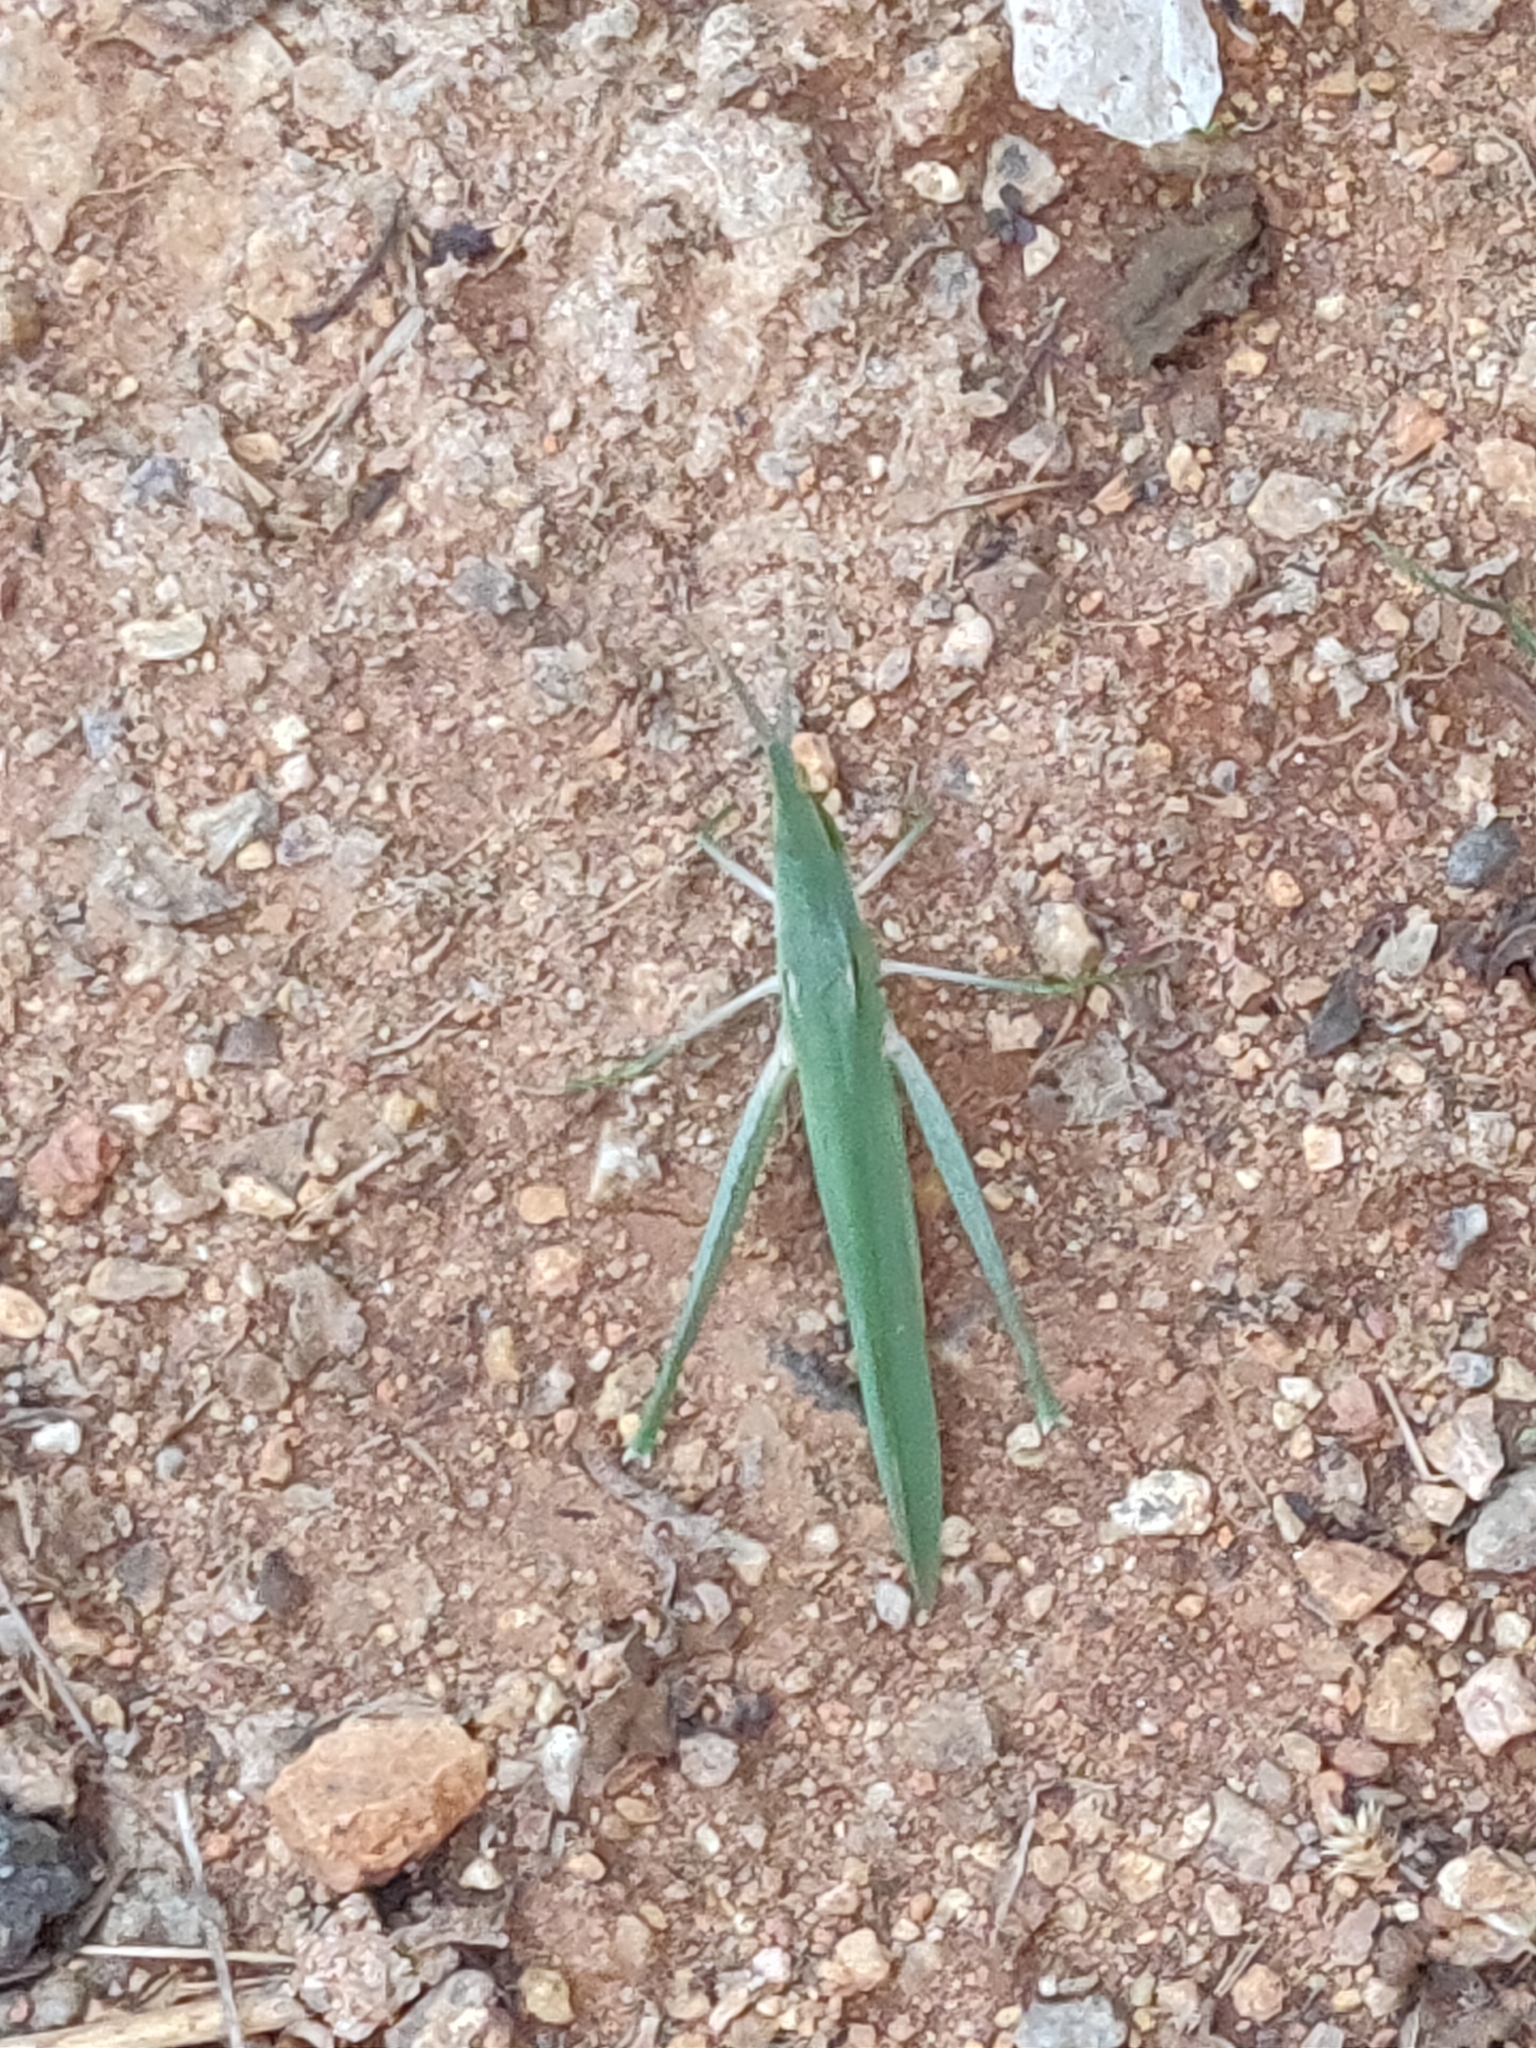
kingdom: Animalia
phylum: Arthropoda
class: Insecta
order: Orthoptera
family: Acrididae
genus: Acrida
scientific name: Acrida cinerea
